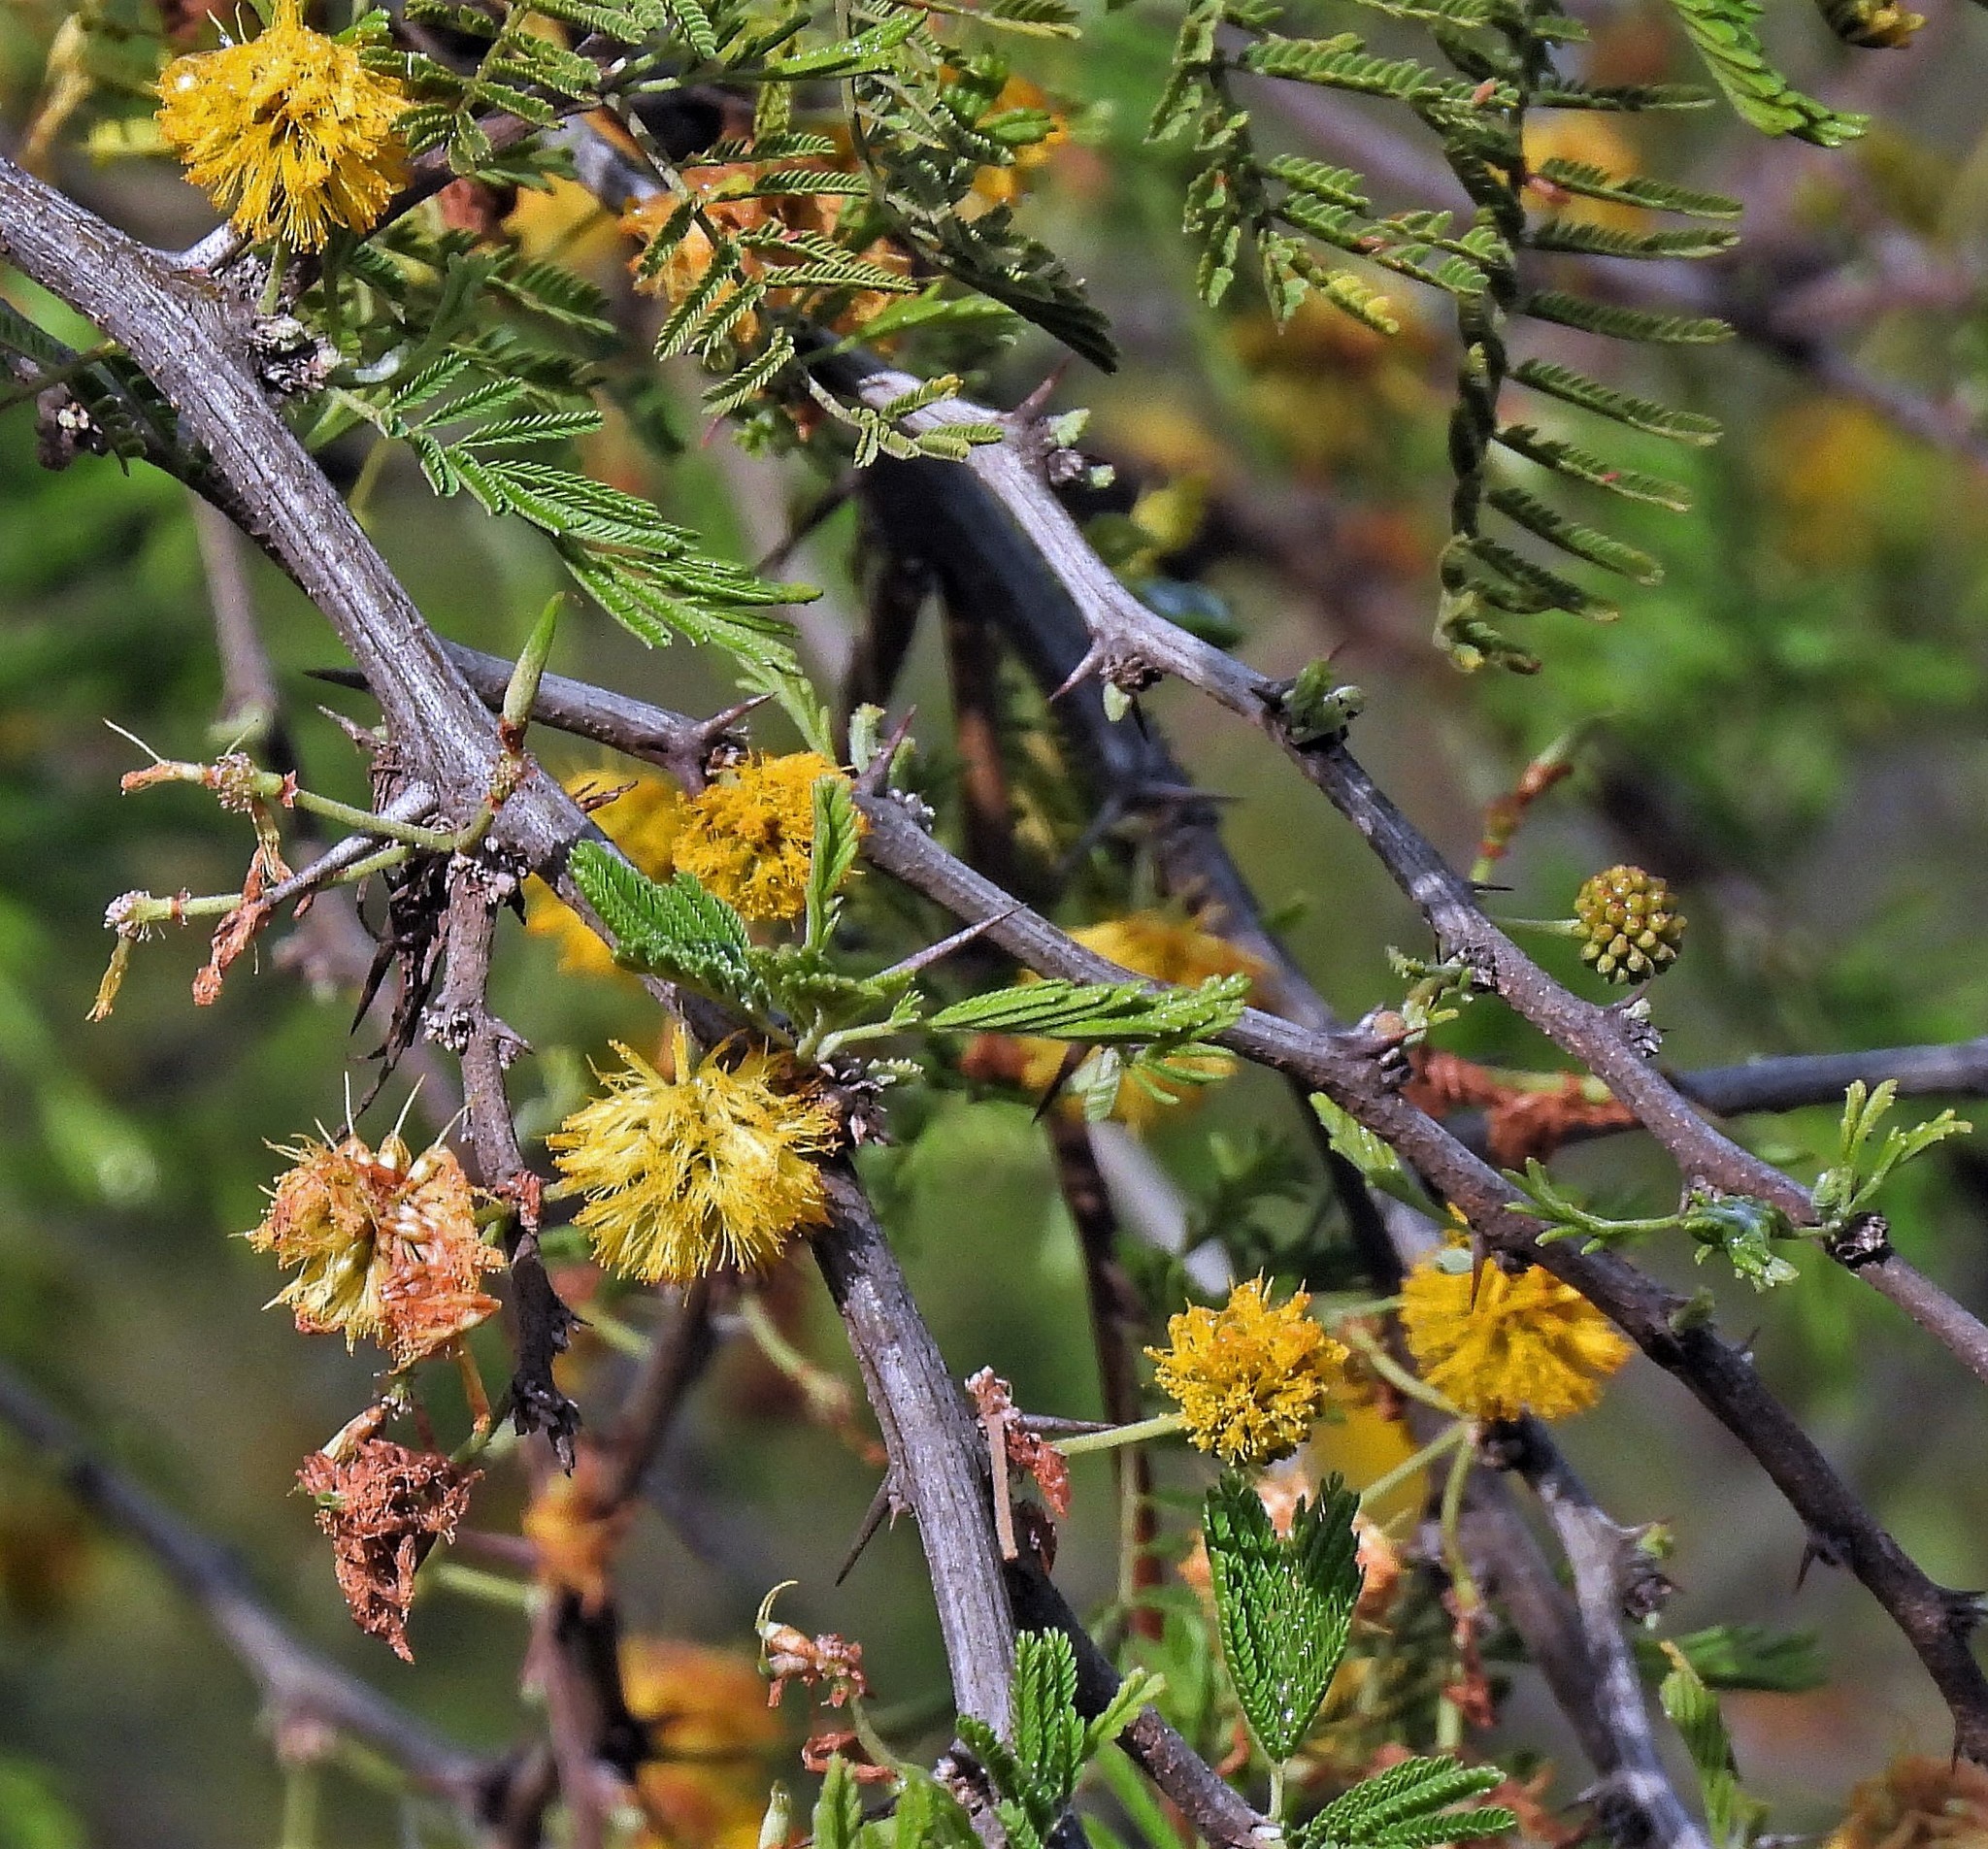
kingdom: Plantae
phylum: Tracheophyta
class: Magnoliopsida
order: Fabales
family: Fabaceae
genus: Vachellia
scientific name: Vachellia caven
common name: Roman cassie
